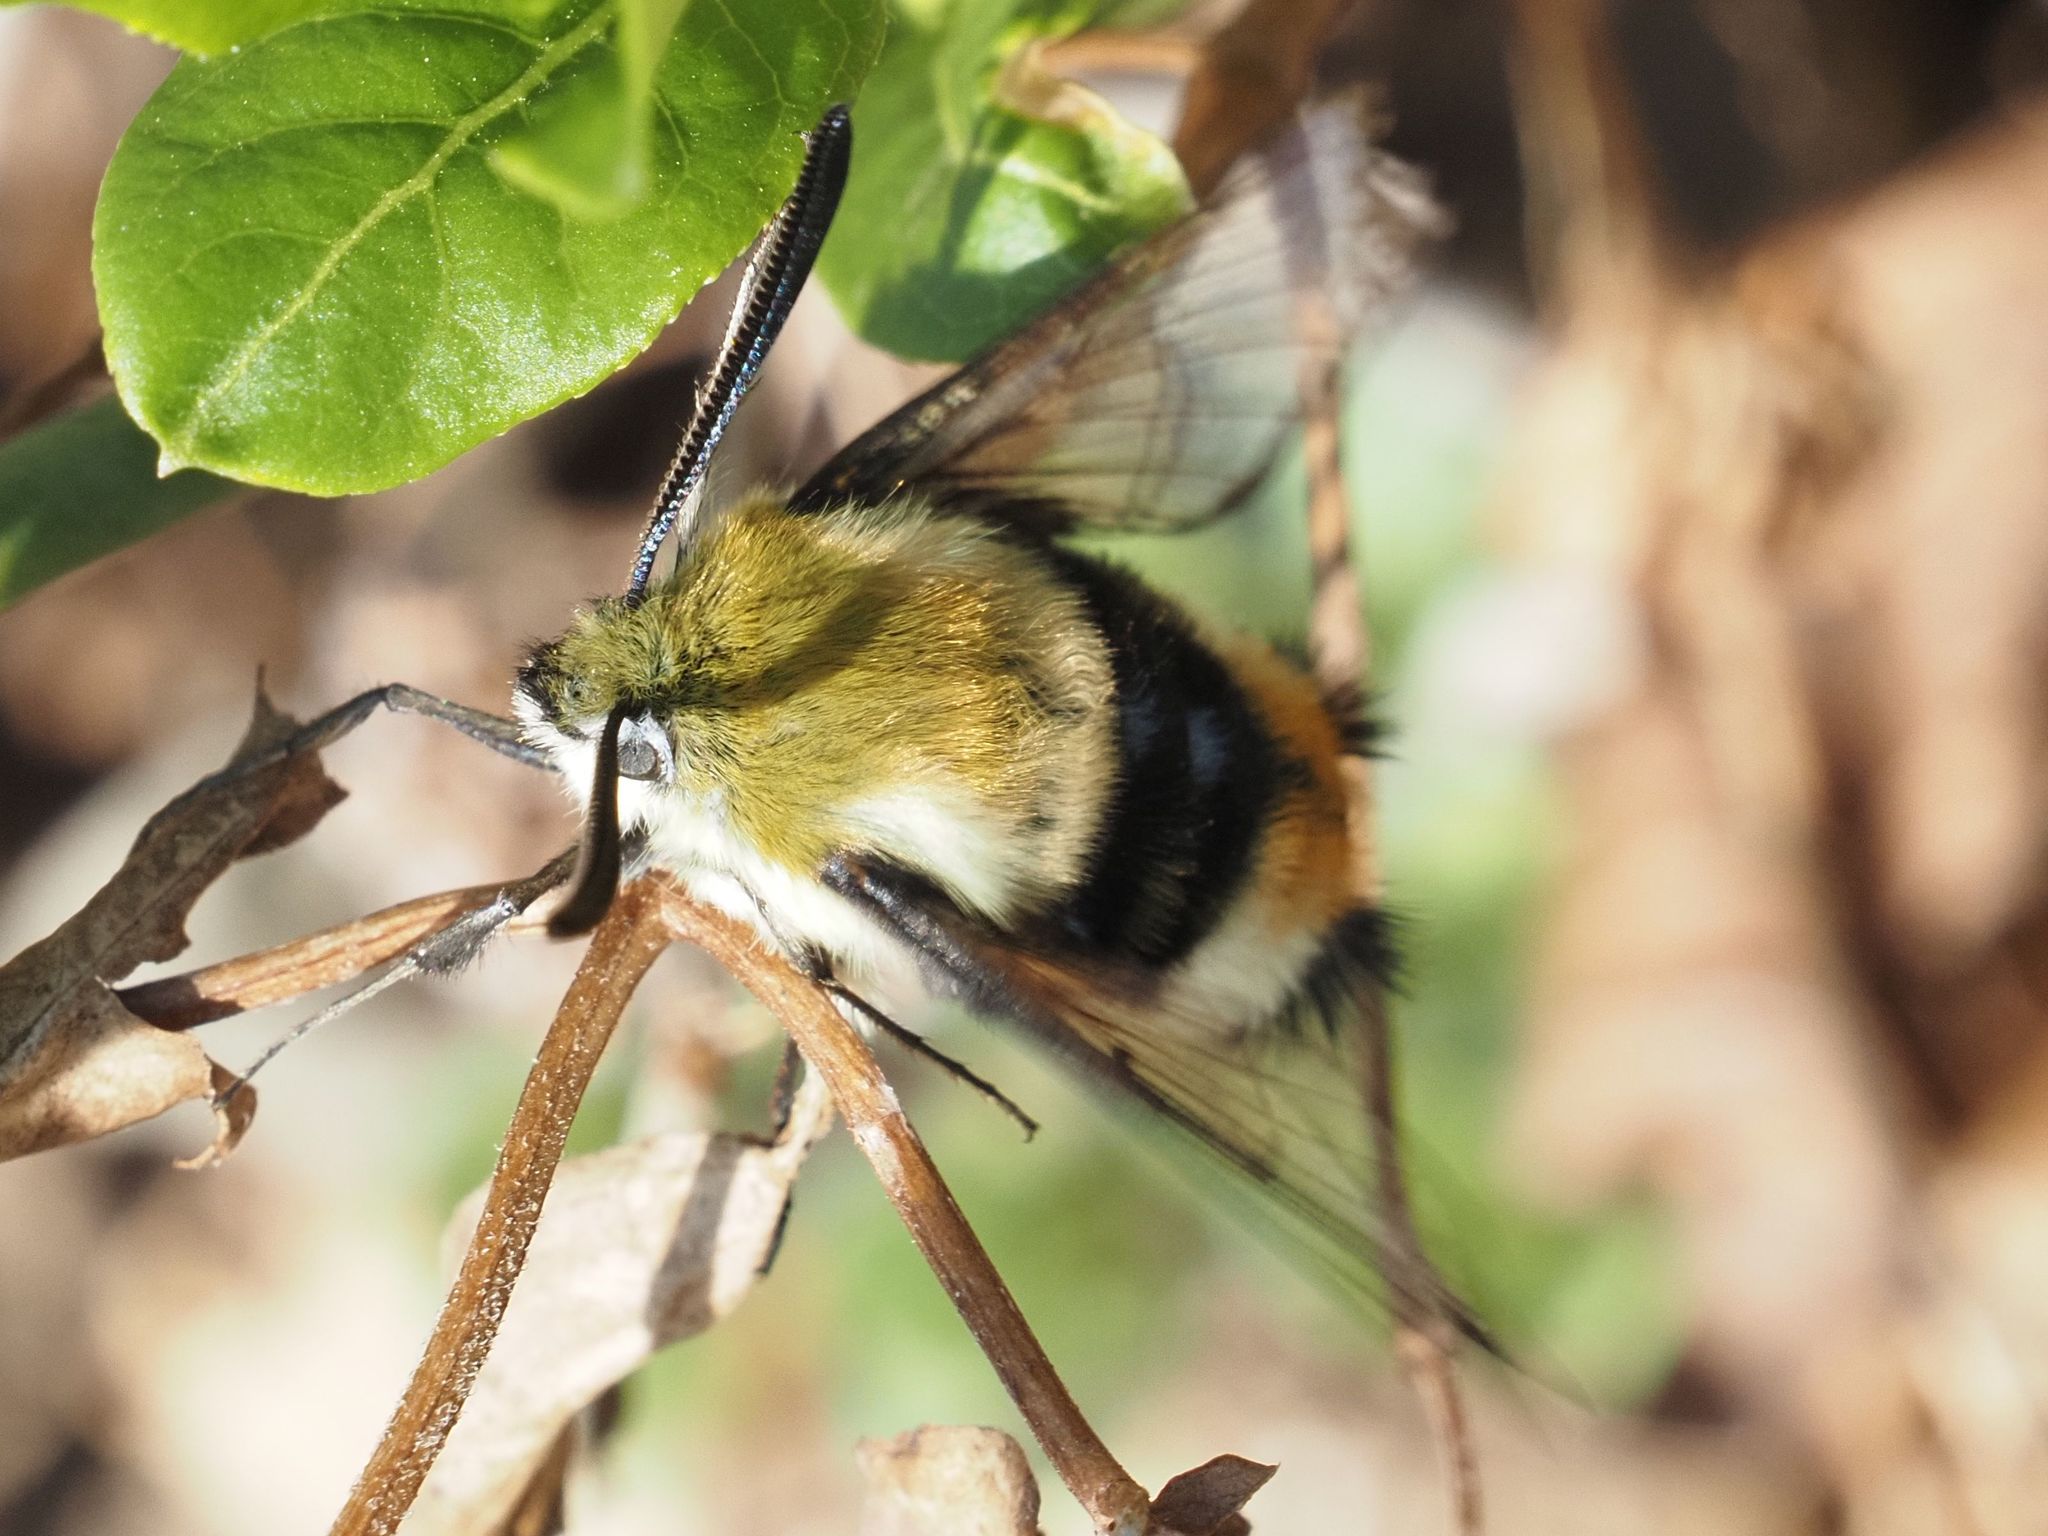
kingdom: Animalia
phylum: Arthropoda
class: Insecta
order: Lepidoptera
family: Sphingidae
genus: Hemaris
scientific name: Hemaris tityus
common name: Narrow-bordered bee hawk-moth
